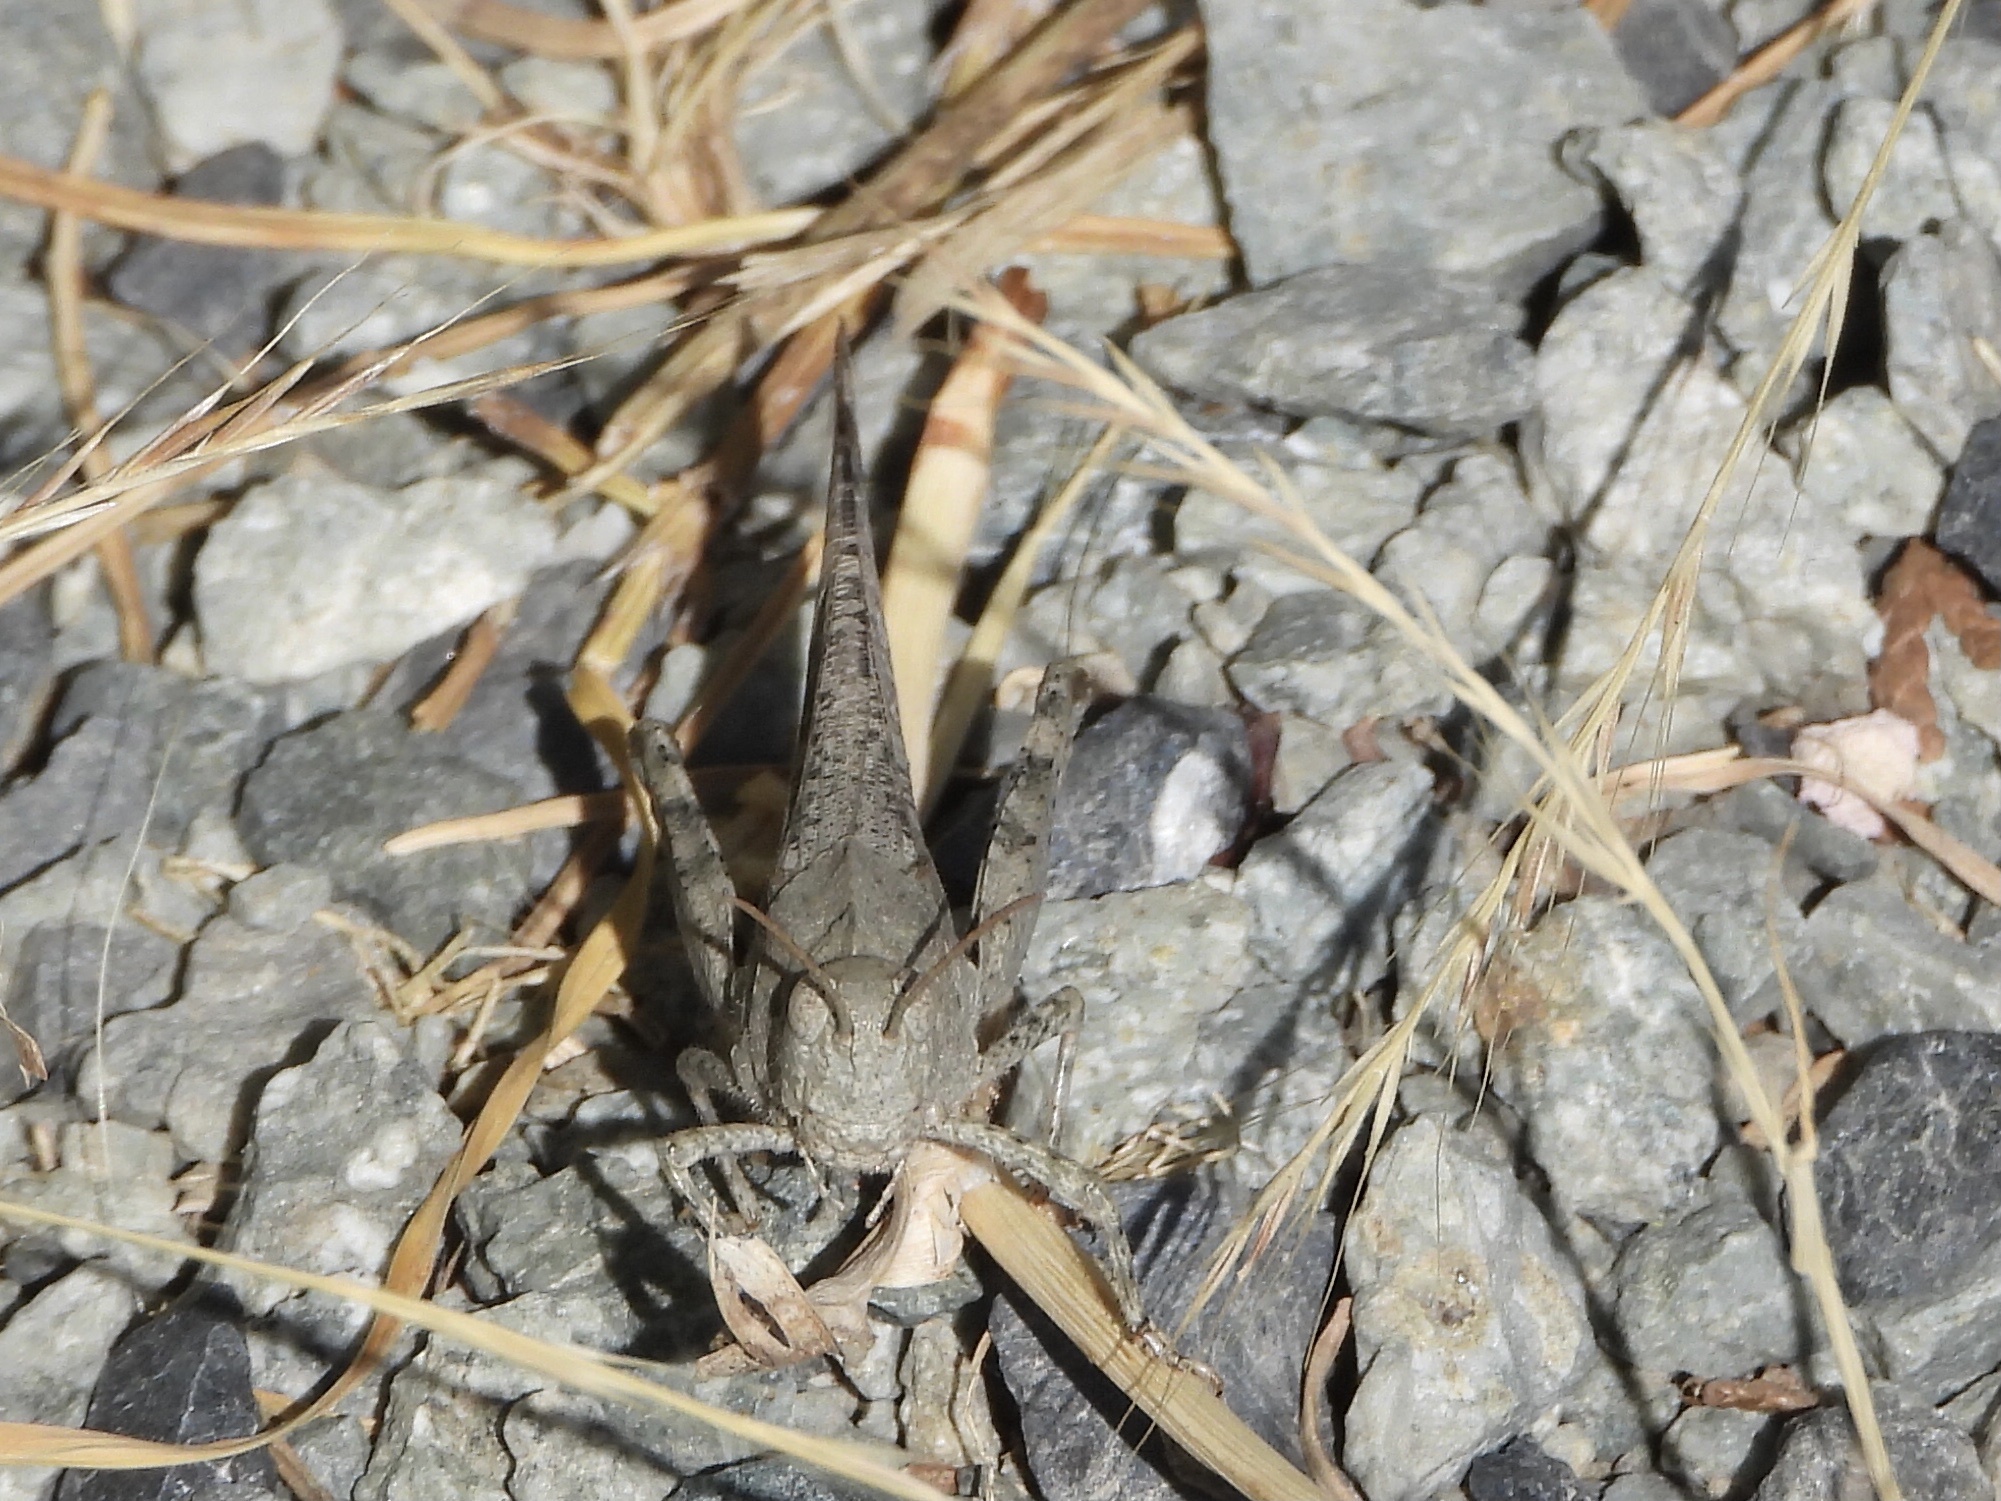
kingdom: Animalia
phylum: Arthropoda
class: Insecta
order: Orthoptera
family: Acrididae
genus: Dissosteira
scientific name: Dissosteira carolina
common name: Carolina grasshopper
